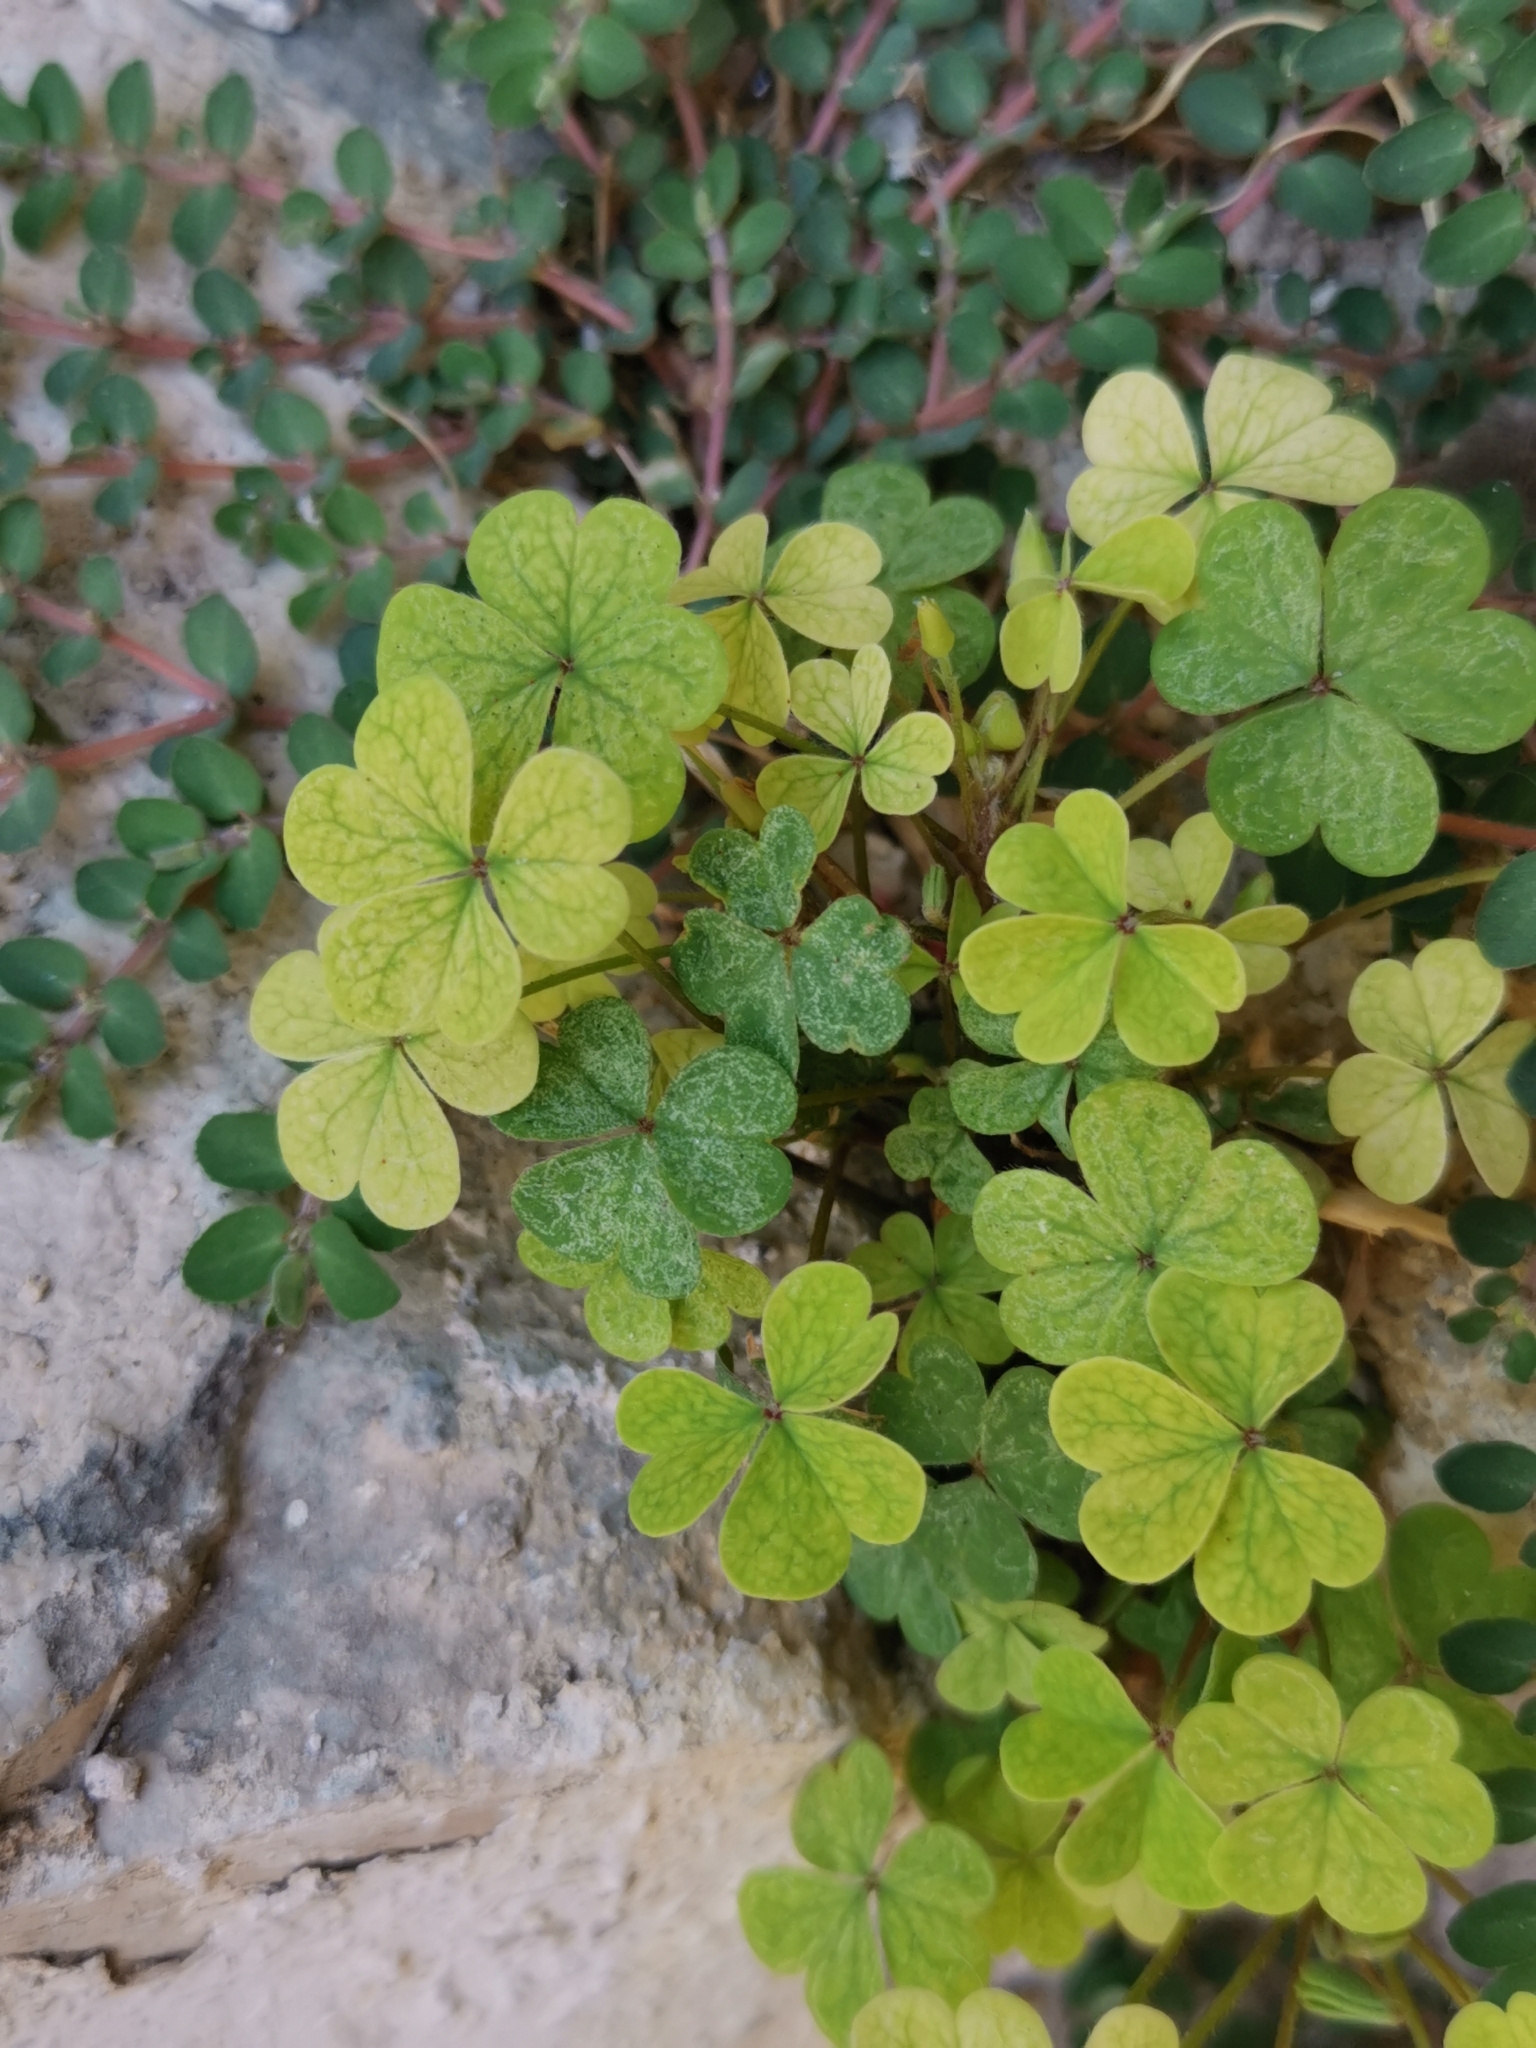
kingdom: Plantae
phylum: Tracheophyta
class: Magnoliopsida
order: Oxalidales
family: Oxalidaceae
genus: Oxalis
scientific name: Oxalis corniculata
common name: Procumbent yellow-sorrel
